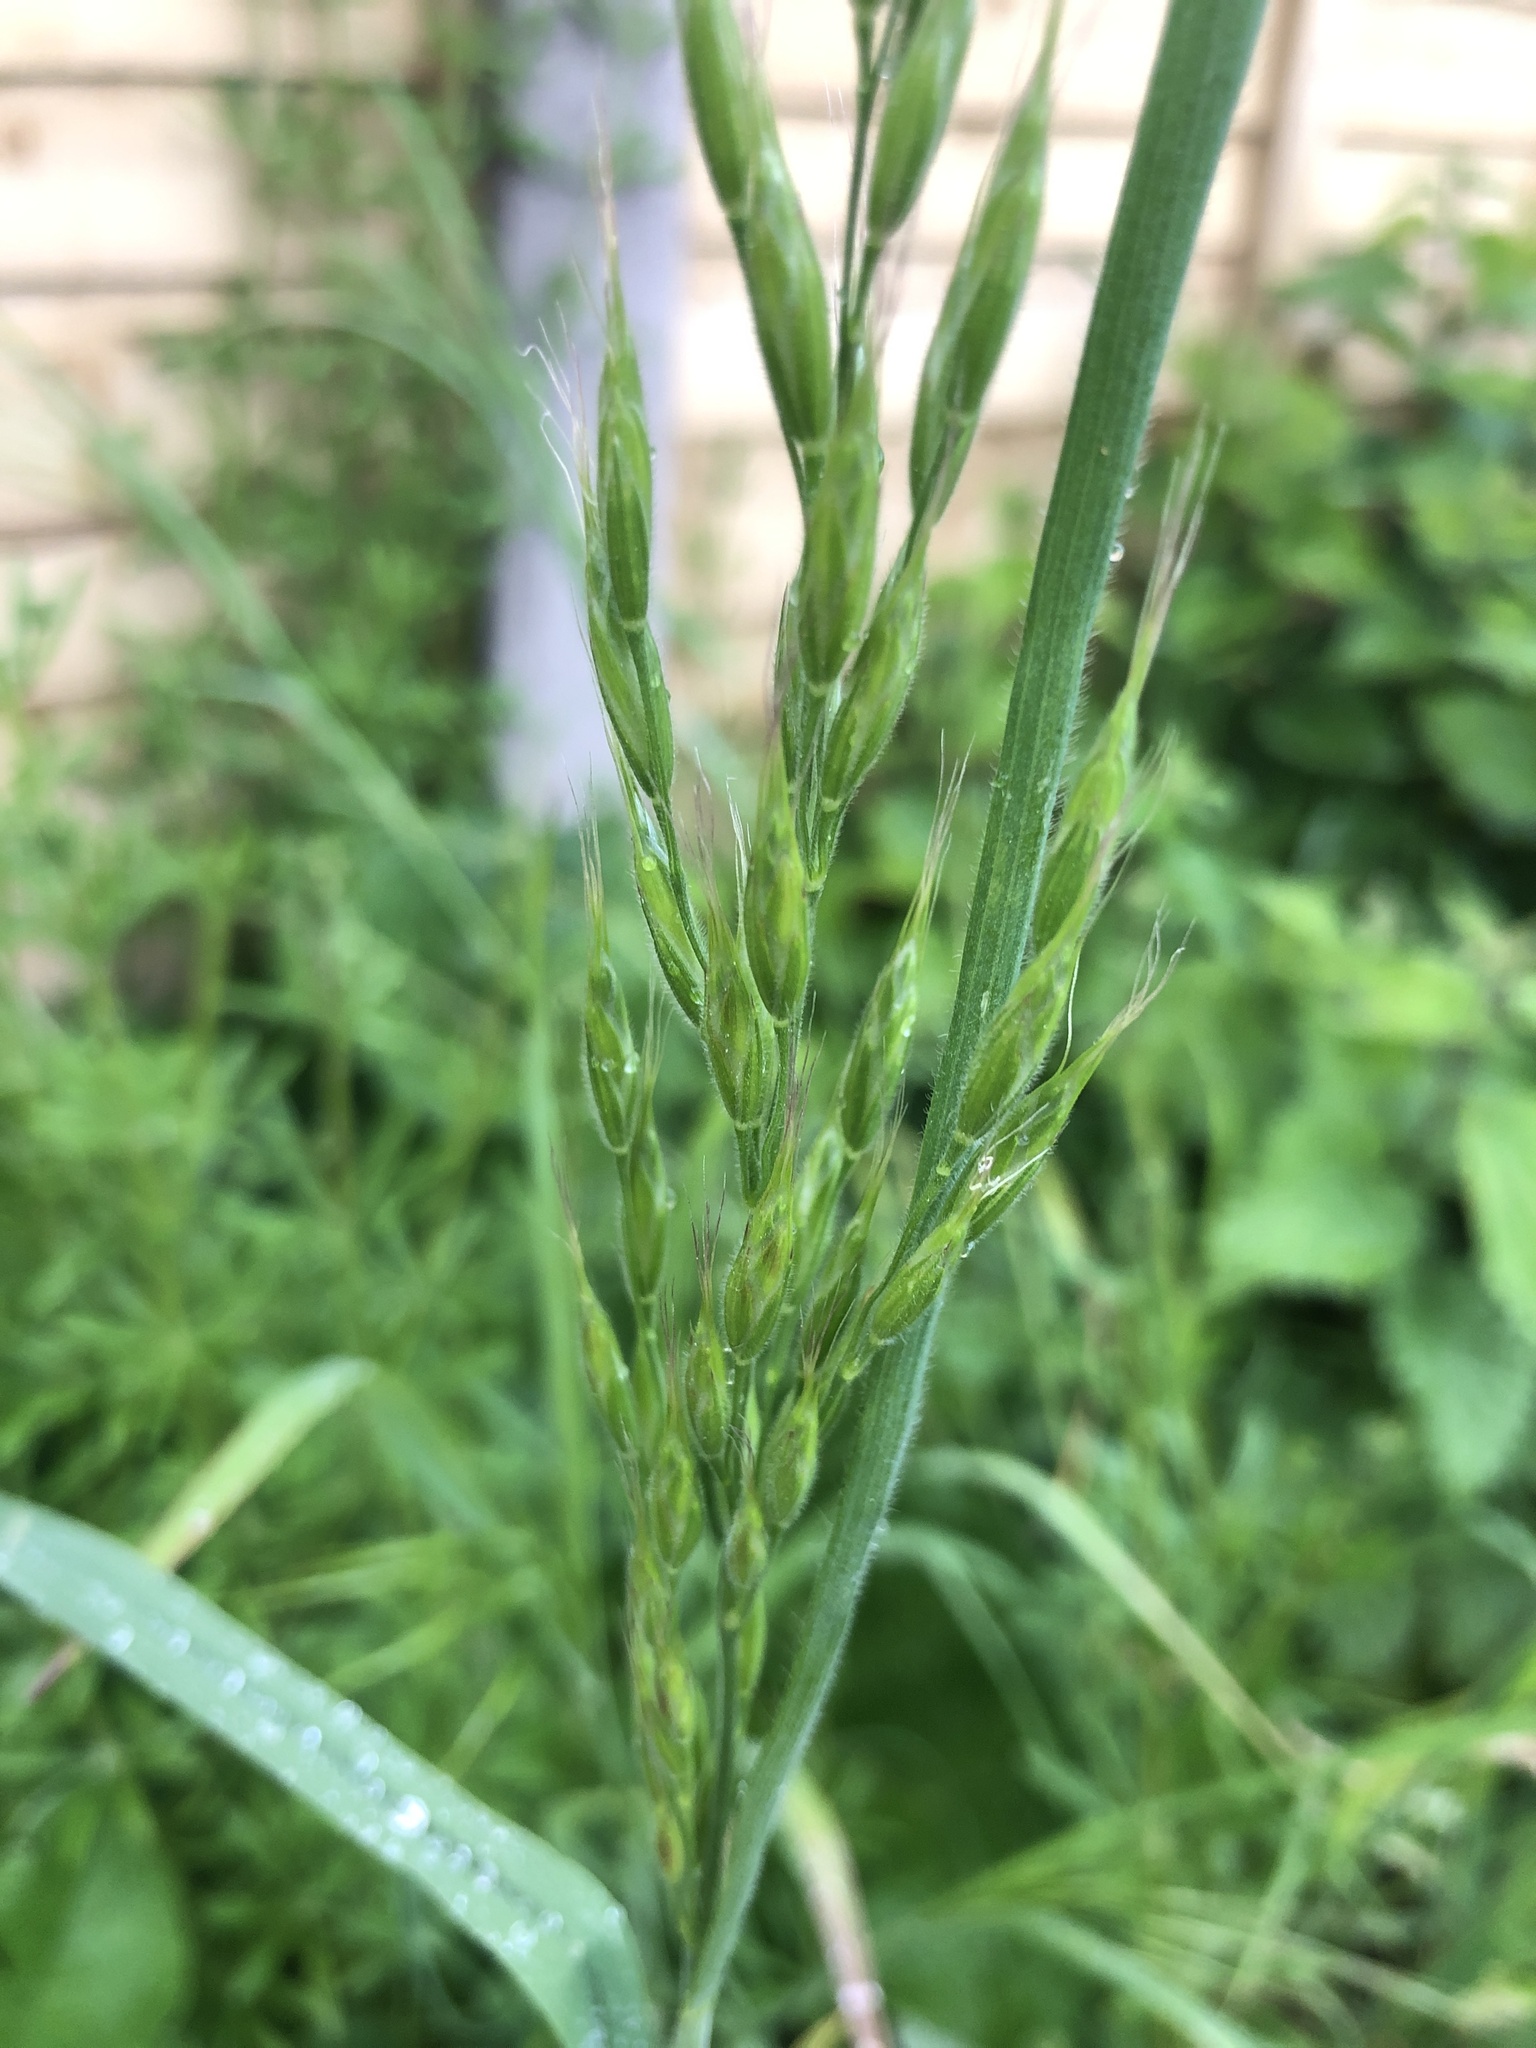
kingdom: Plantae
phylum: Tracheophyta
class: Liliopsida
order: Poales
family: Poaceae
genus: Bromus
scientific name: Bromus hordeaceus
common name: Soft brome
